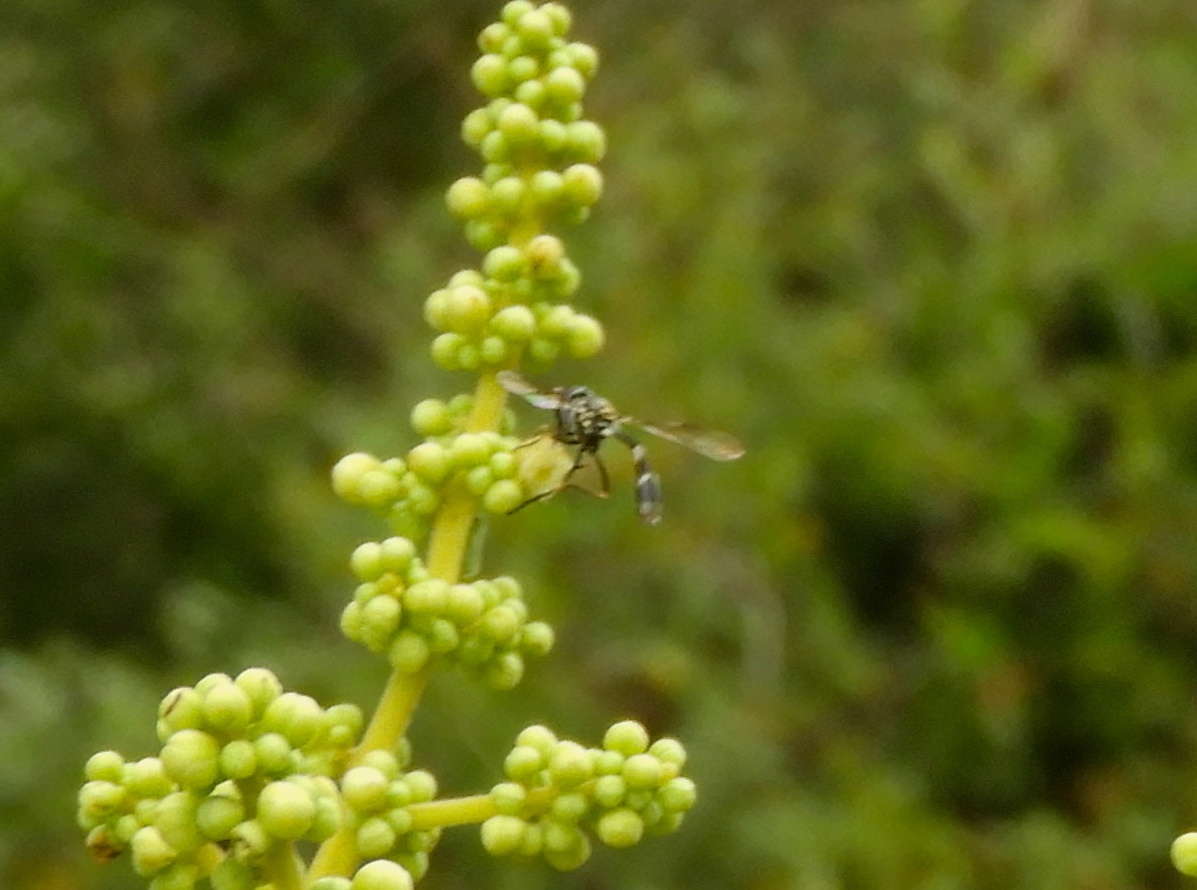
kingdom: Animalia
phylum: Arthropoda
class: Insecta
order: Diptera
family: Syrphidae
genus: Dioprosopa
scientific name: Dioprosopa clavatus
